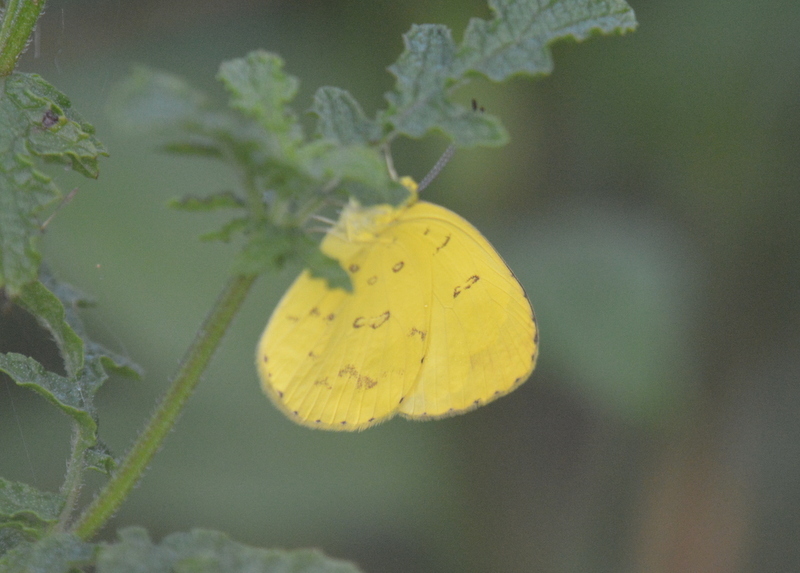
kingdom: Animalia
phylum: Arthropoda
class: Insecta
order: Lepidoptera
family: Pieridae
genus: Eurema
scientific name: Eurema hecabe
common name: Pale grass yellow
